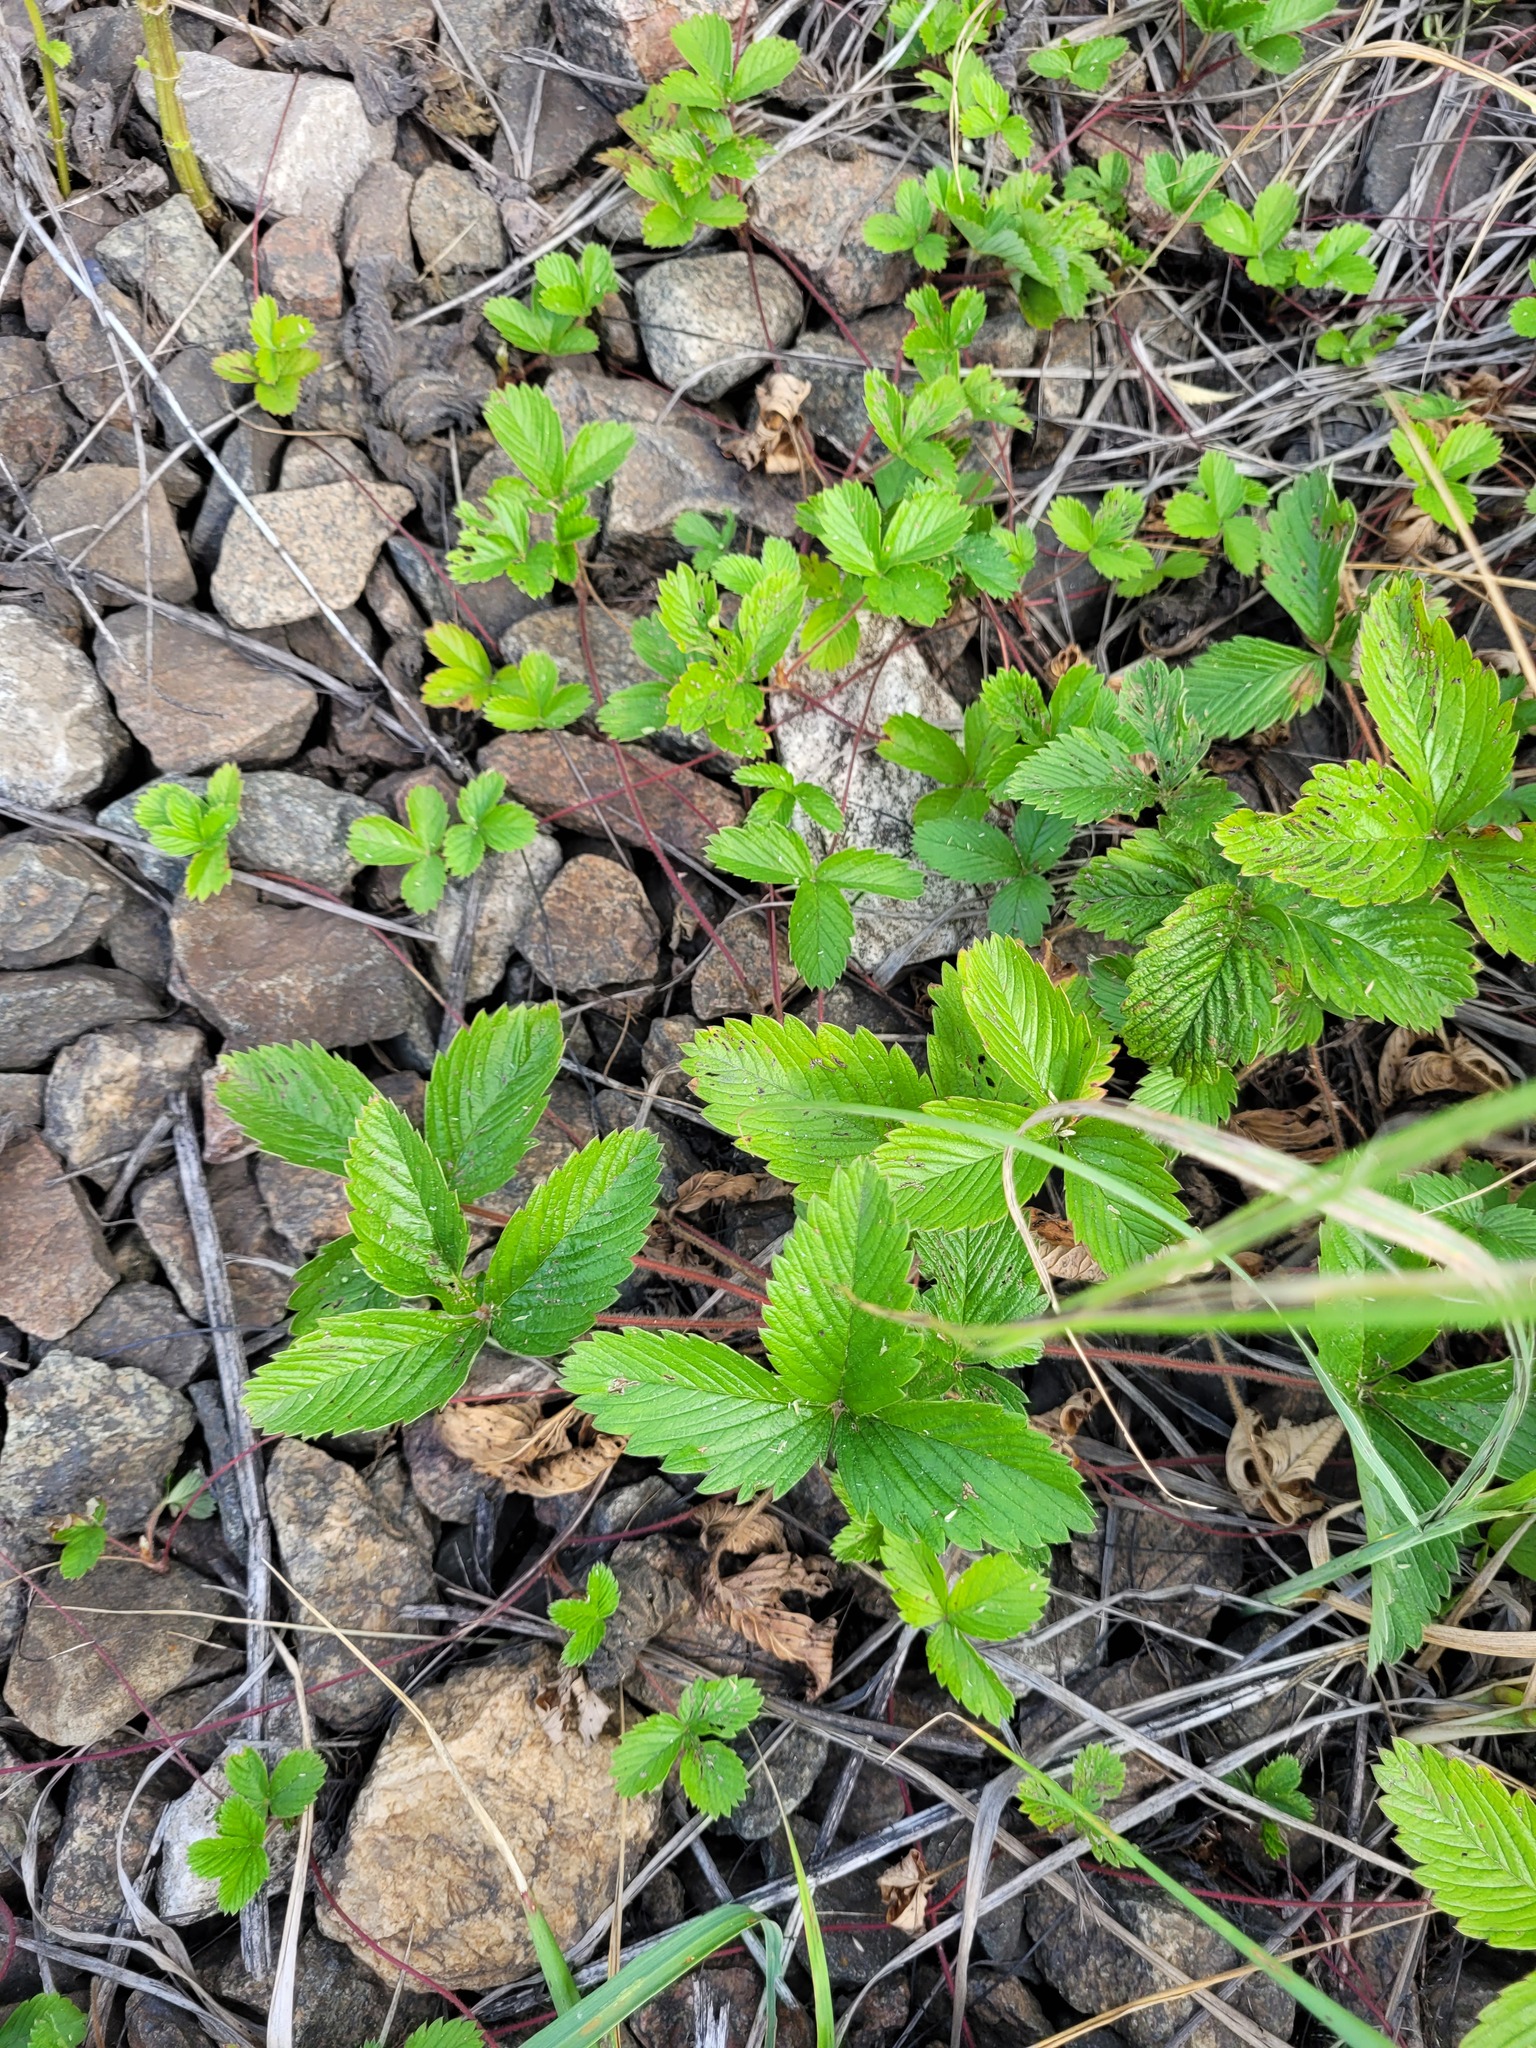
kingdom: Plantae
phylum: Tracheophyta
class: Magnoliopsida
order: Rosales
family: Rosaceae
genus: Fragaria
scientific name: Fragaria viridis
